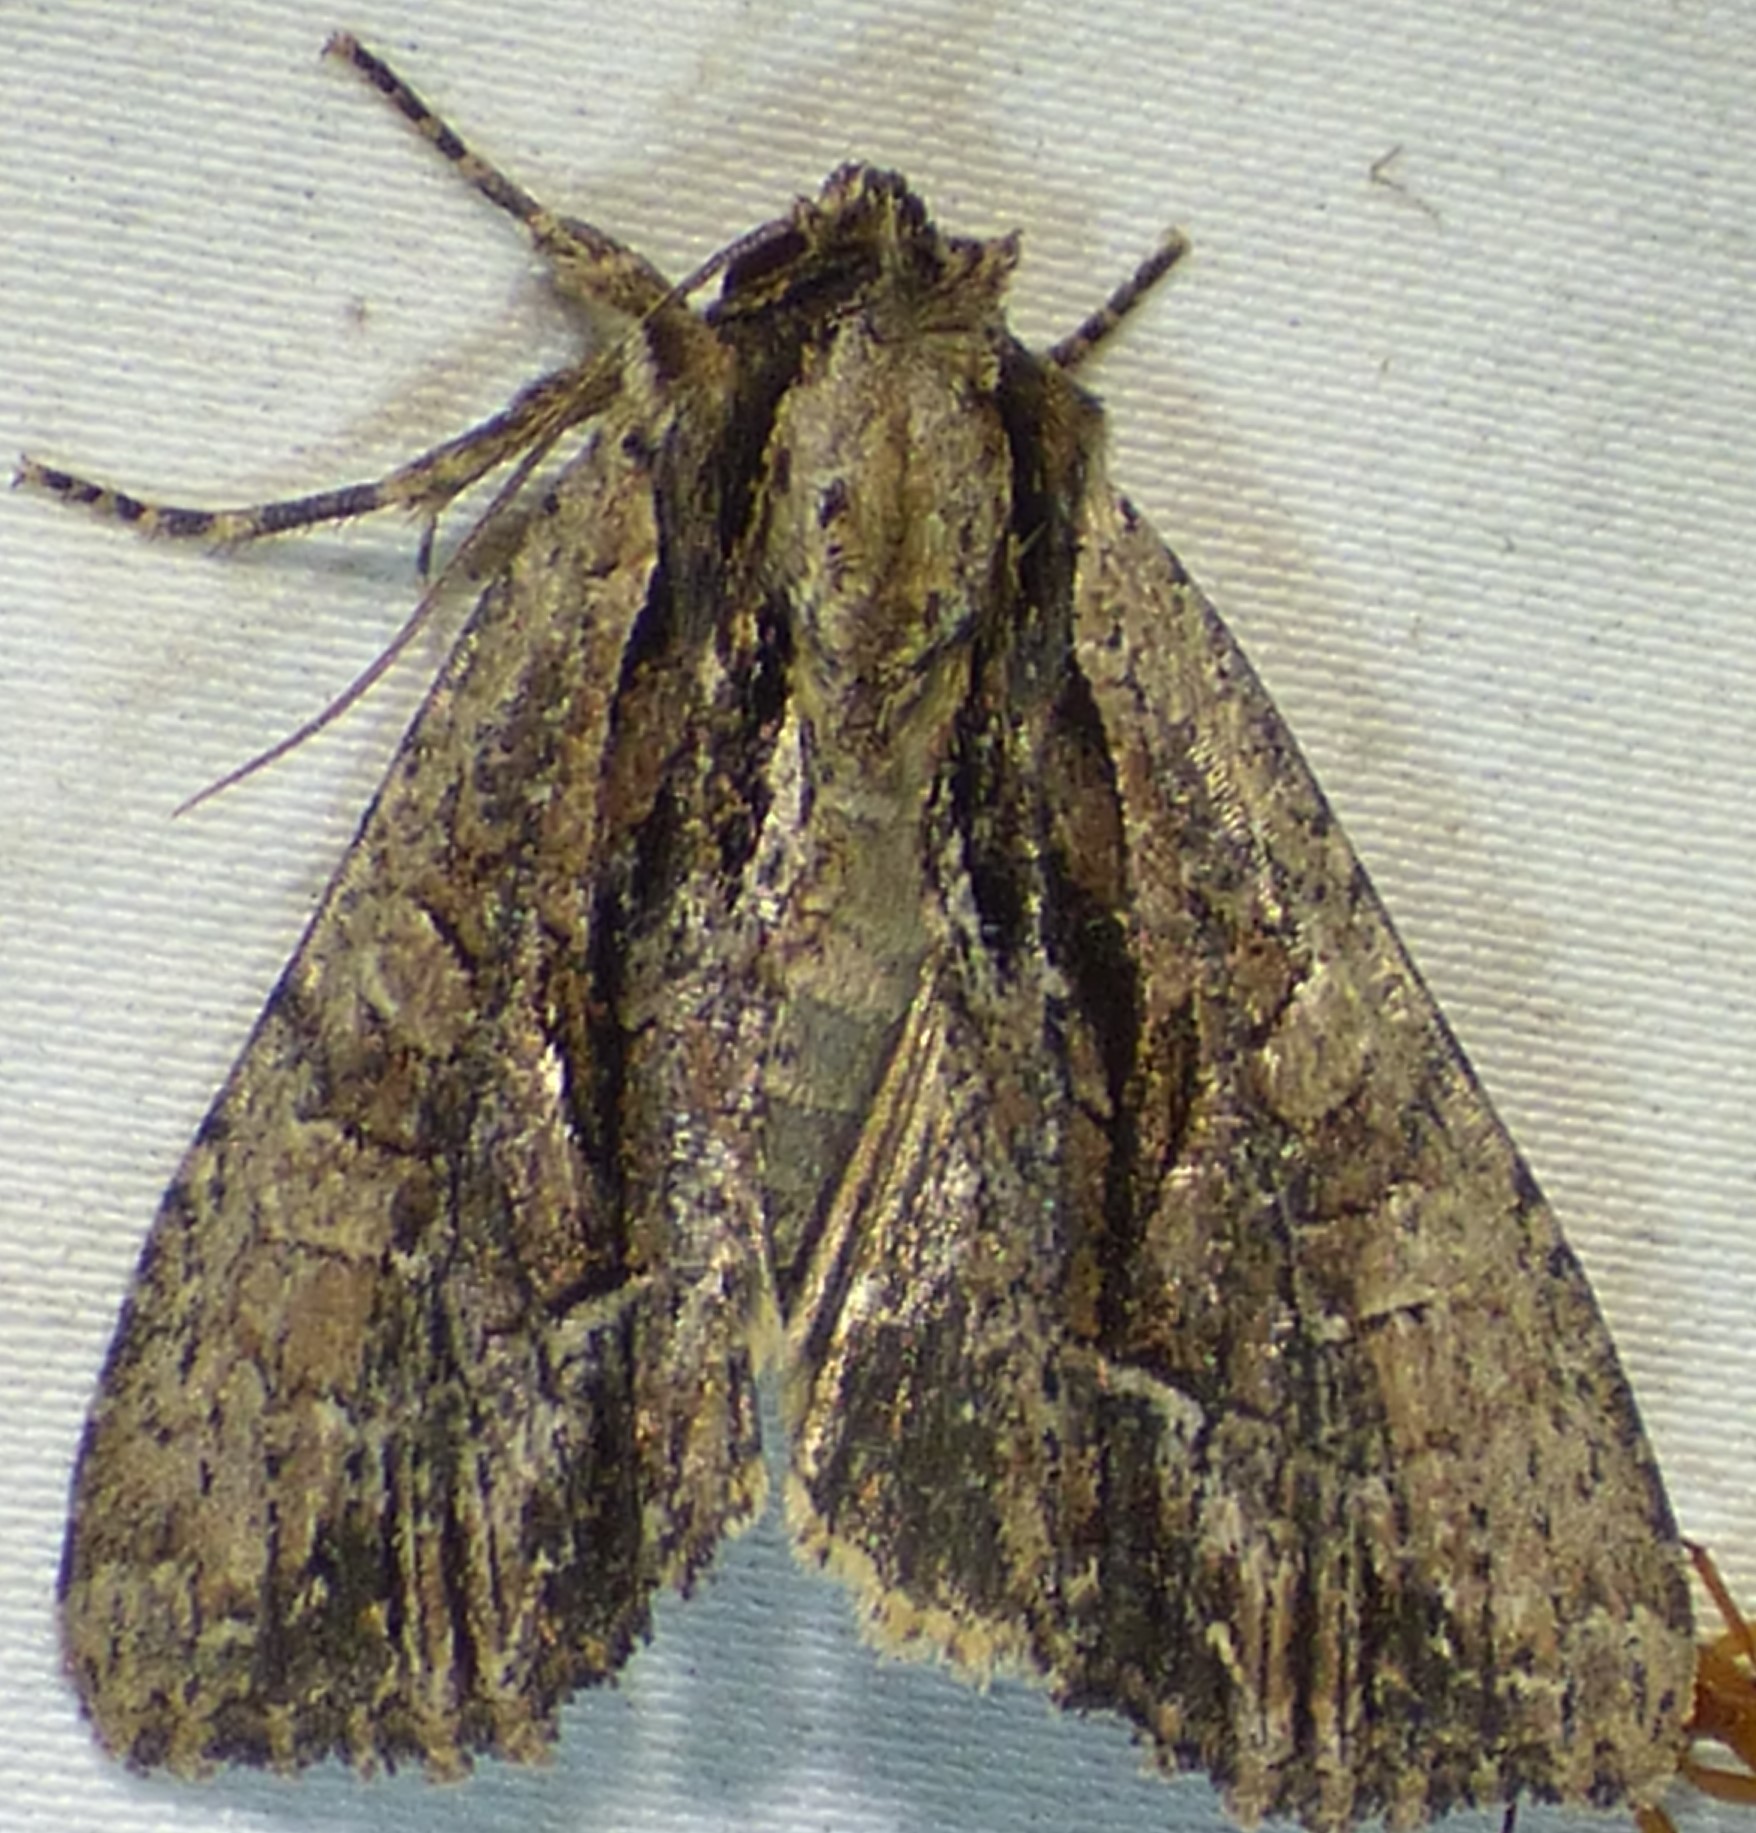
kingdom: Animalia
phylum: Arthropoda
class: Insecta
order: Lepidoptera
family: Noctuidae
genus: Apamea
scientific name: Apamea cariosa
